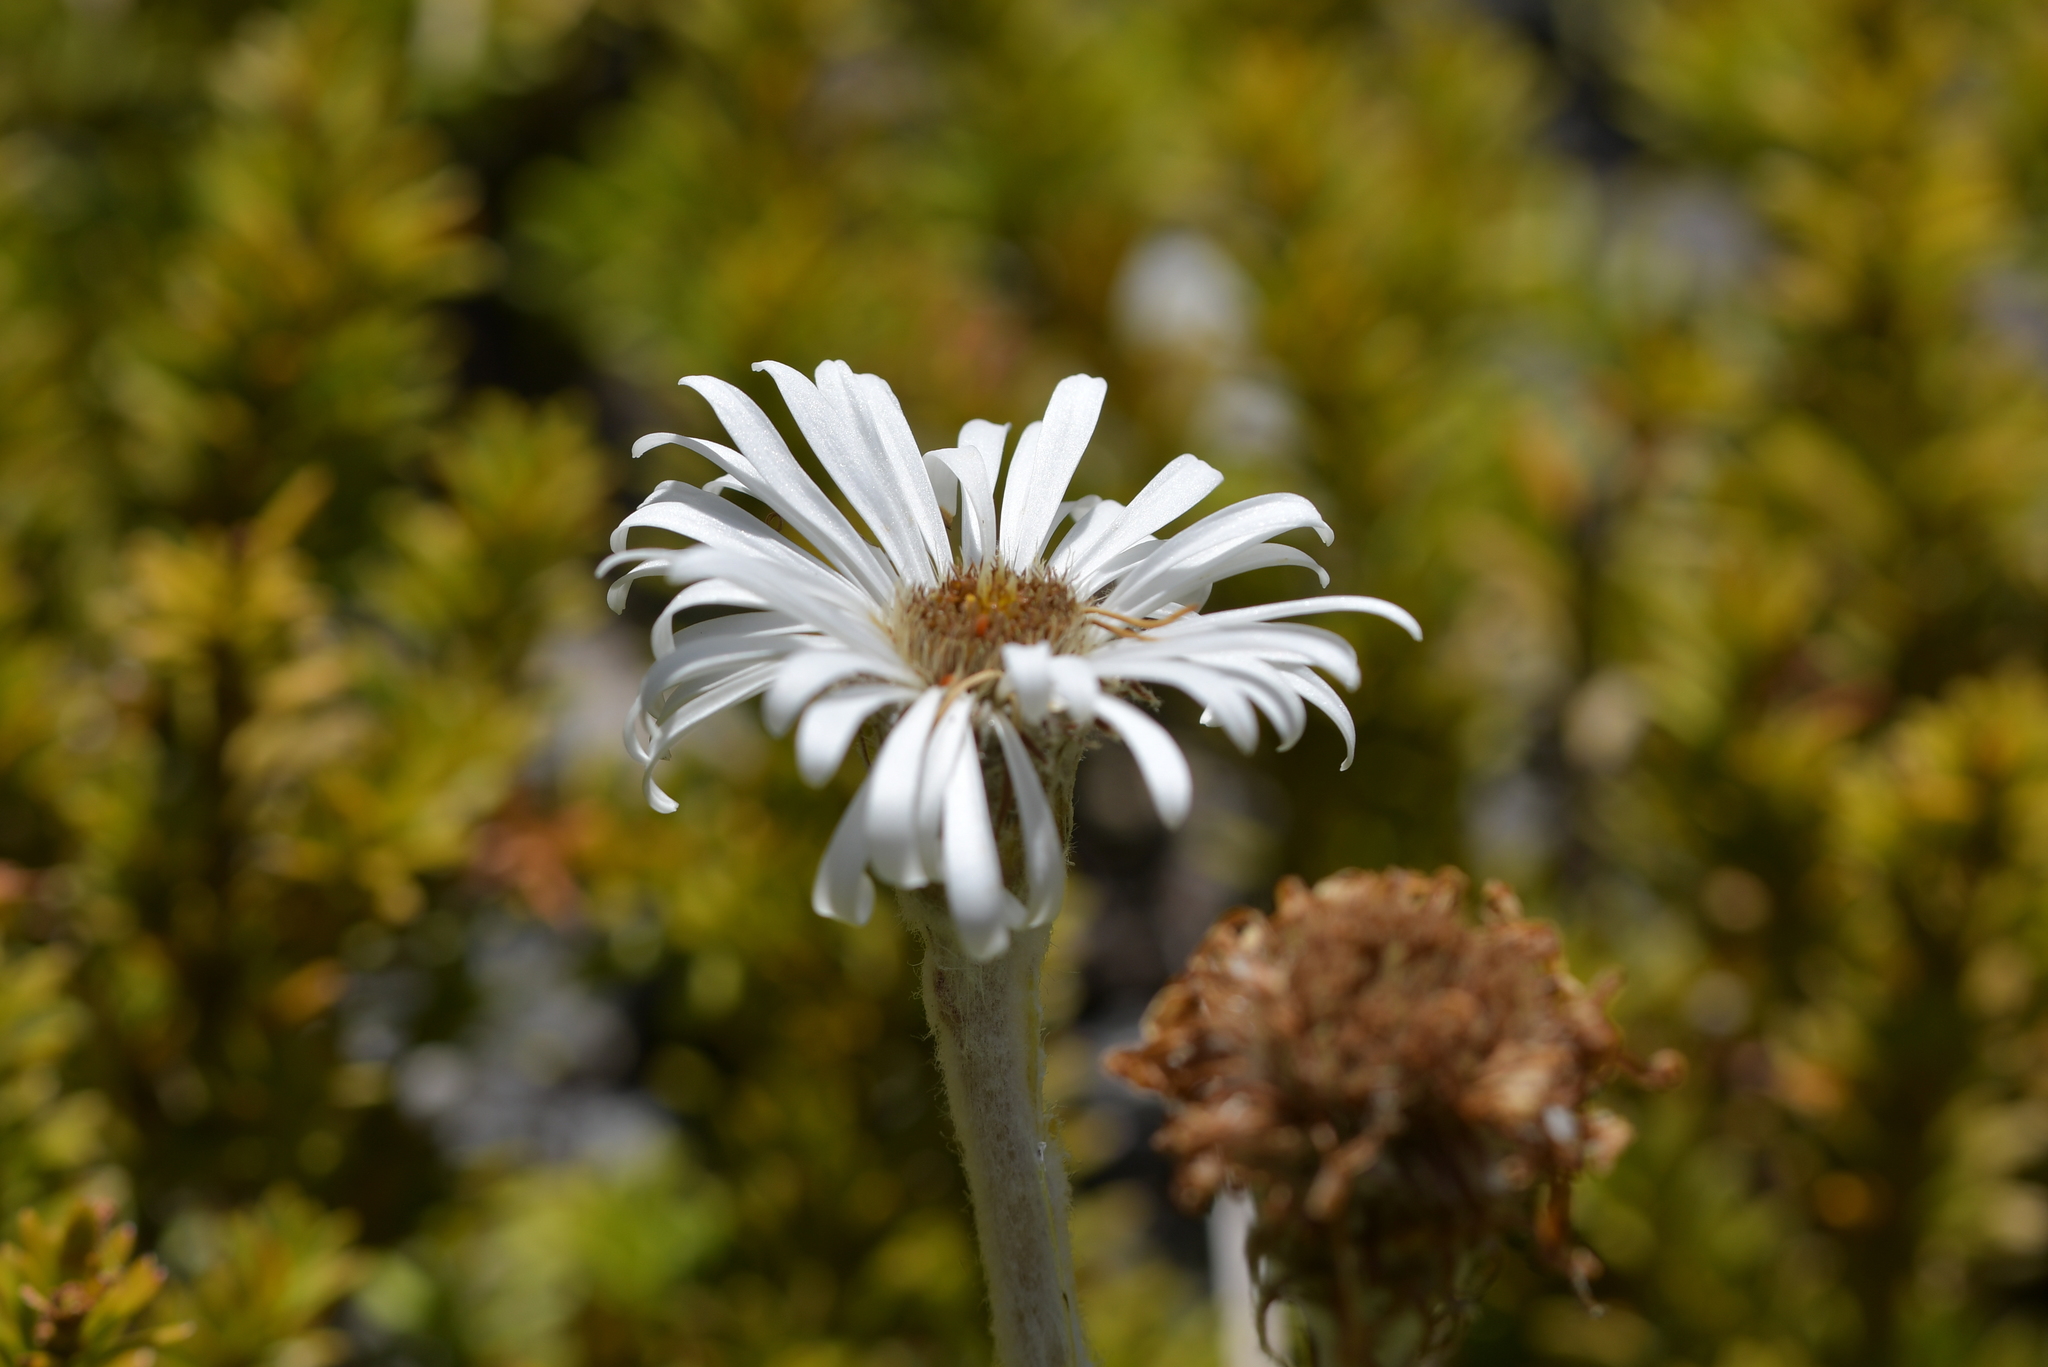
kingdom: Plantae
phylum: Tracheophyta
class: Magnoliopsida
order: Asterales
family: Asteraceae
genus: Celmisia
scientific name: Celmisia spectabilis
